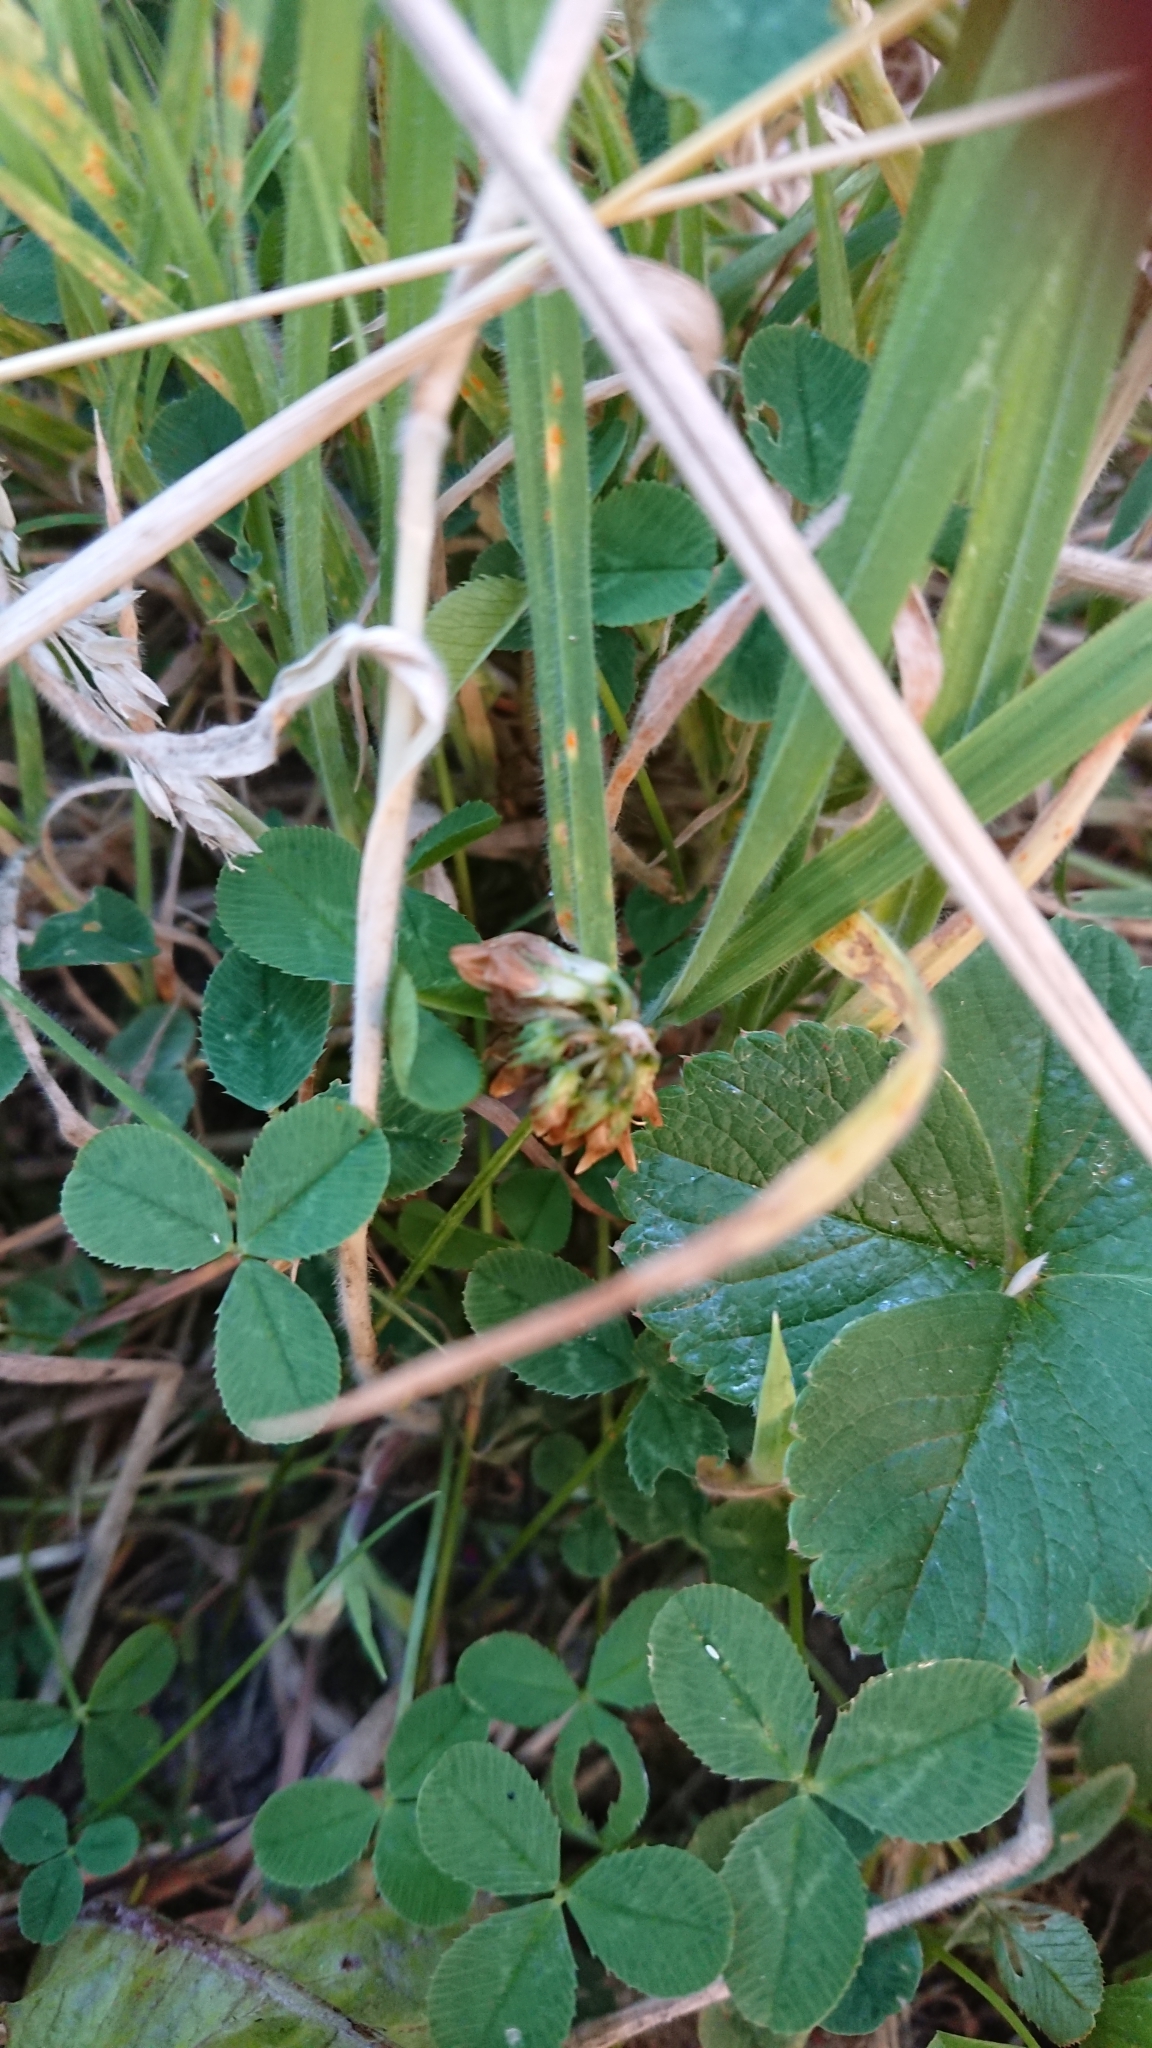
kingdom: Plantae
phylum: Tracheophyta
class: Magnoliopsida
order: Fabales
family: Fabaceae
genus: Trifolium
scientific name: Trifolium repens
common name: White clover
